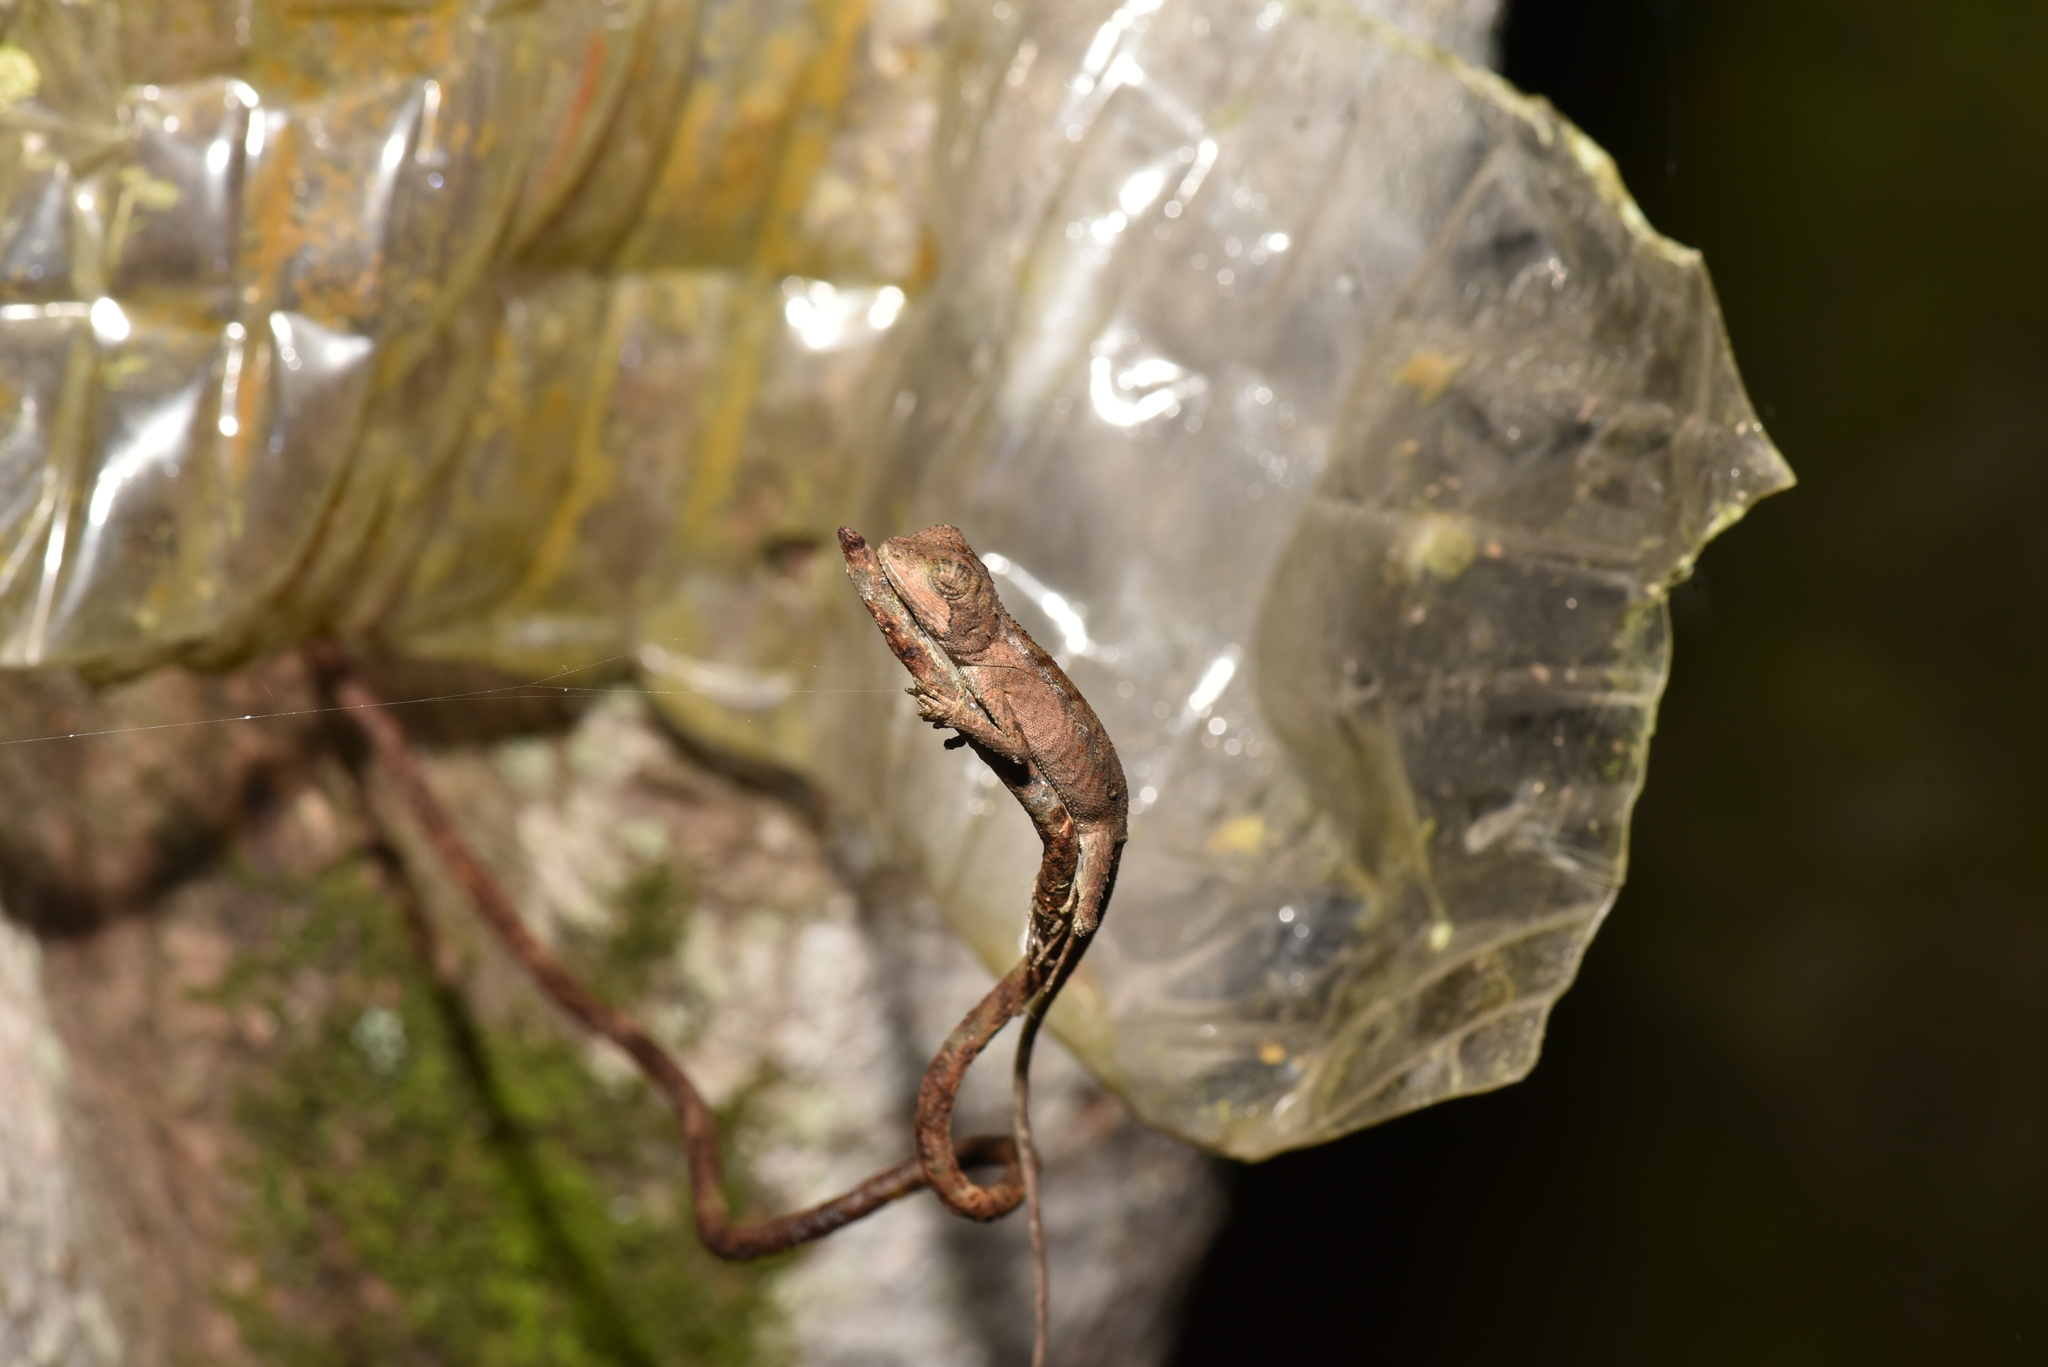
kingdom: Animalia
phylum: Chordata
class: Squamata
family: Agamidae
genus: Diploderma
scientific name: Diploderma swinhonis
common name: Taiwan japalure
